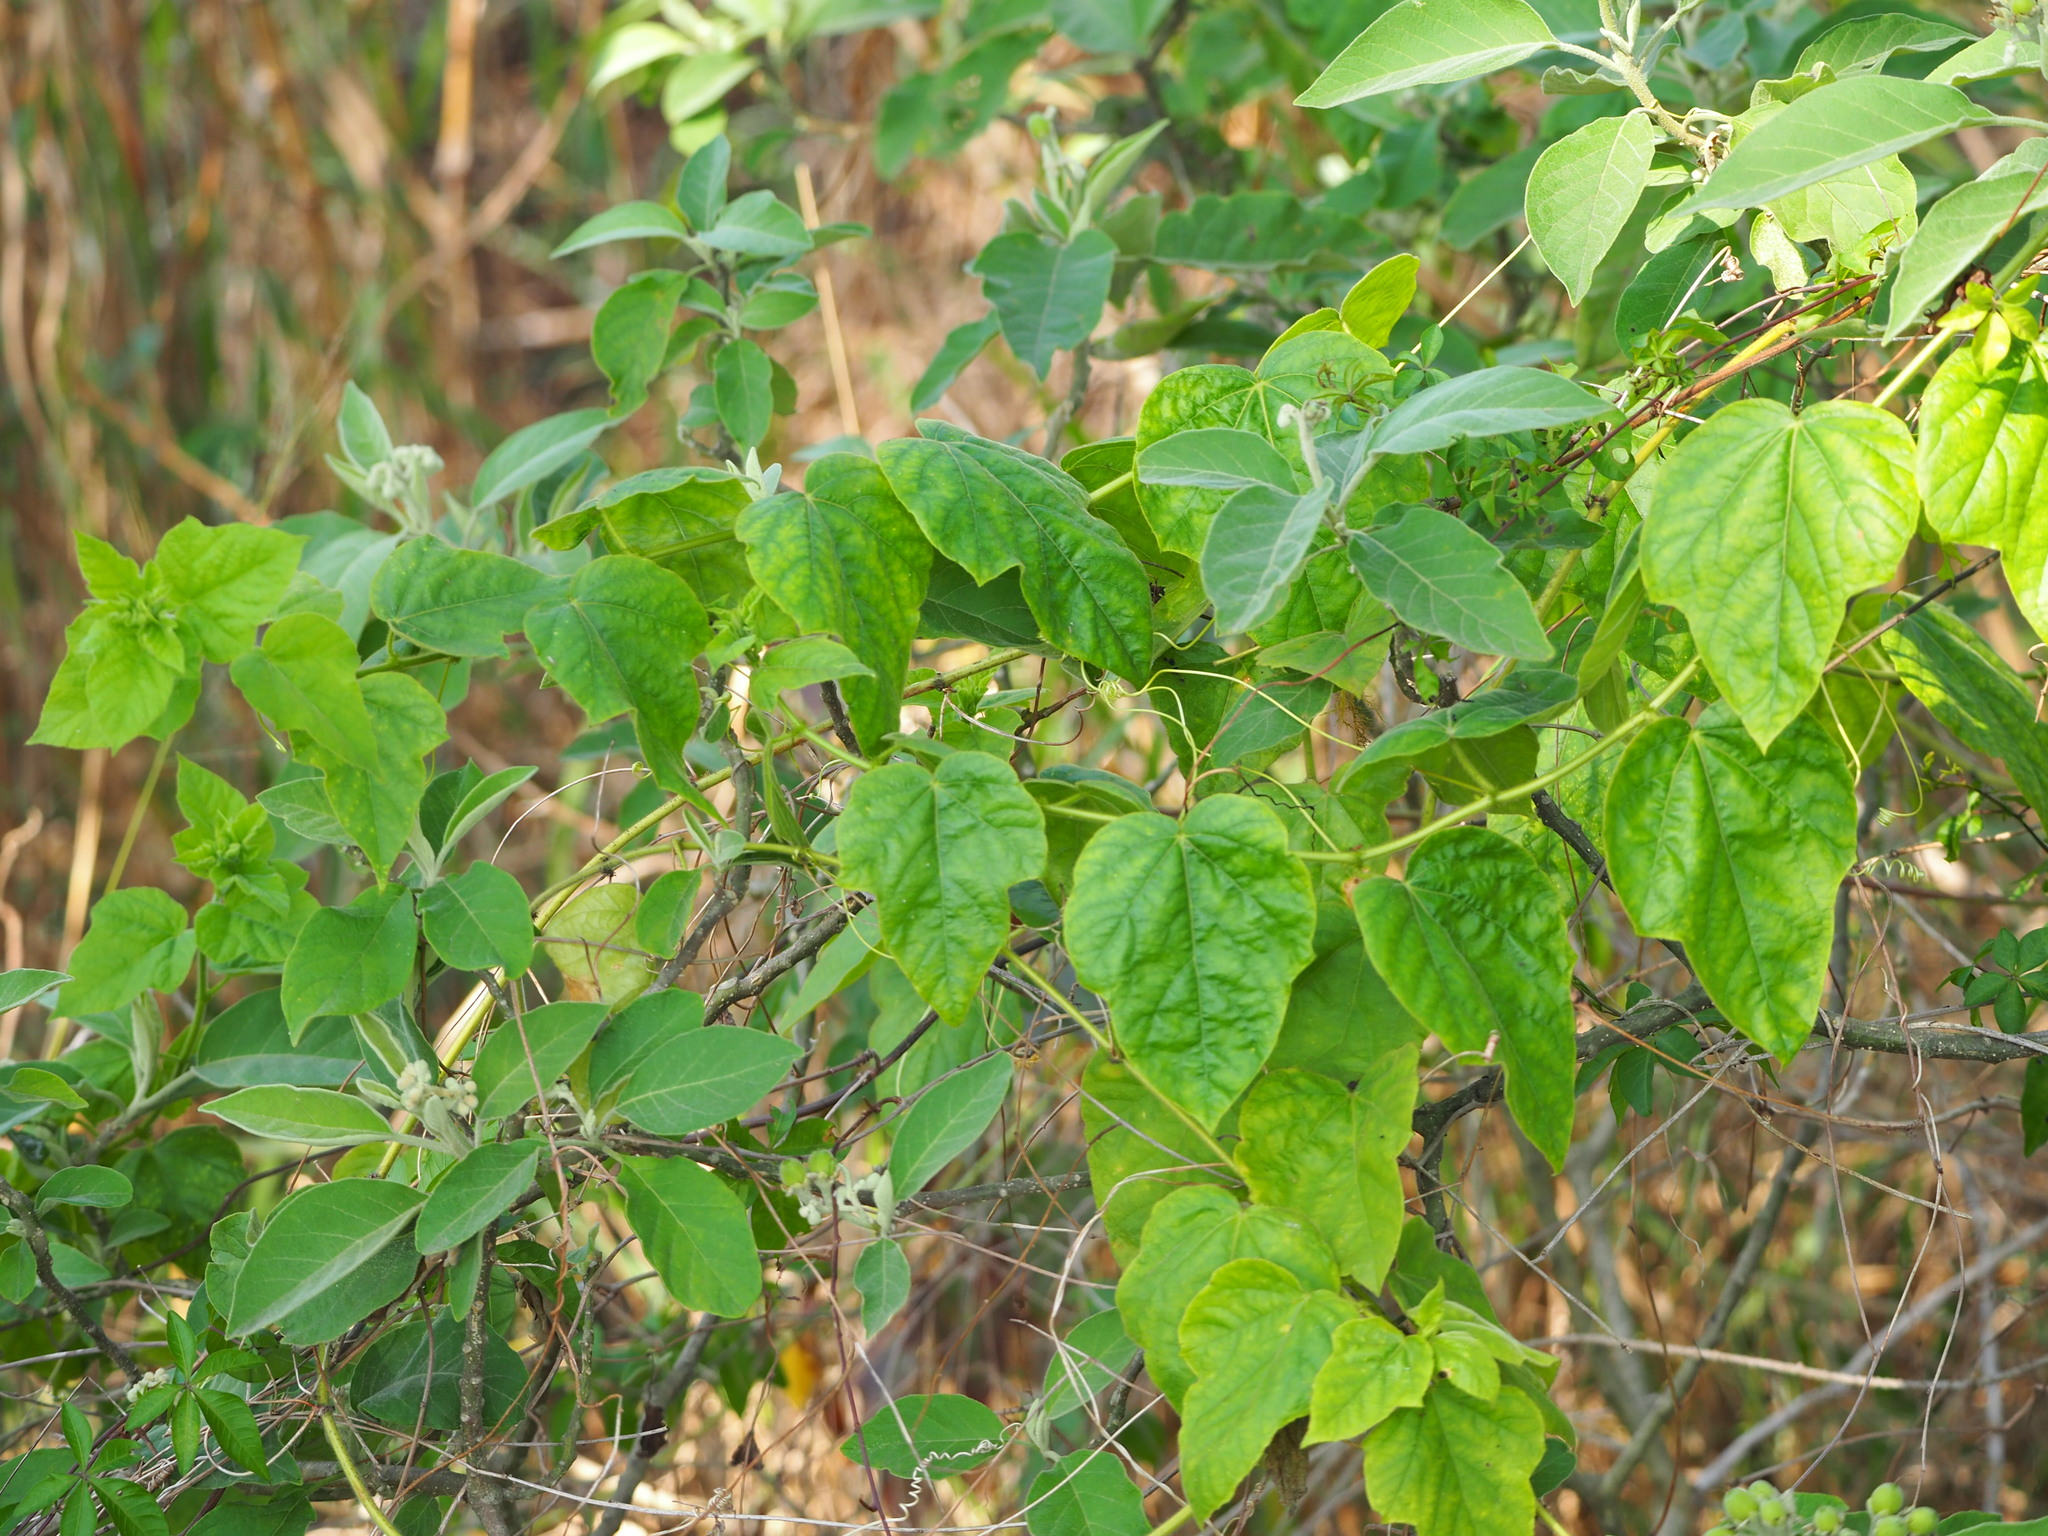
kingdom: Plantae
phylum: Tracheophyta
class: Magnoliopsida
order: Malpighiales
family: Passifloraceae
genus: Passiflora
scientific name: Passiflora vesicaria
